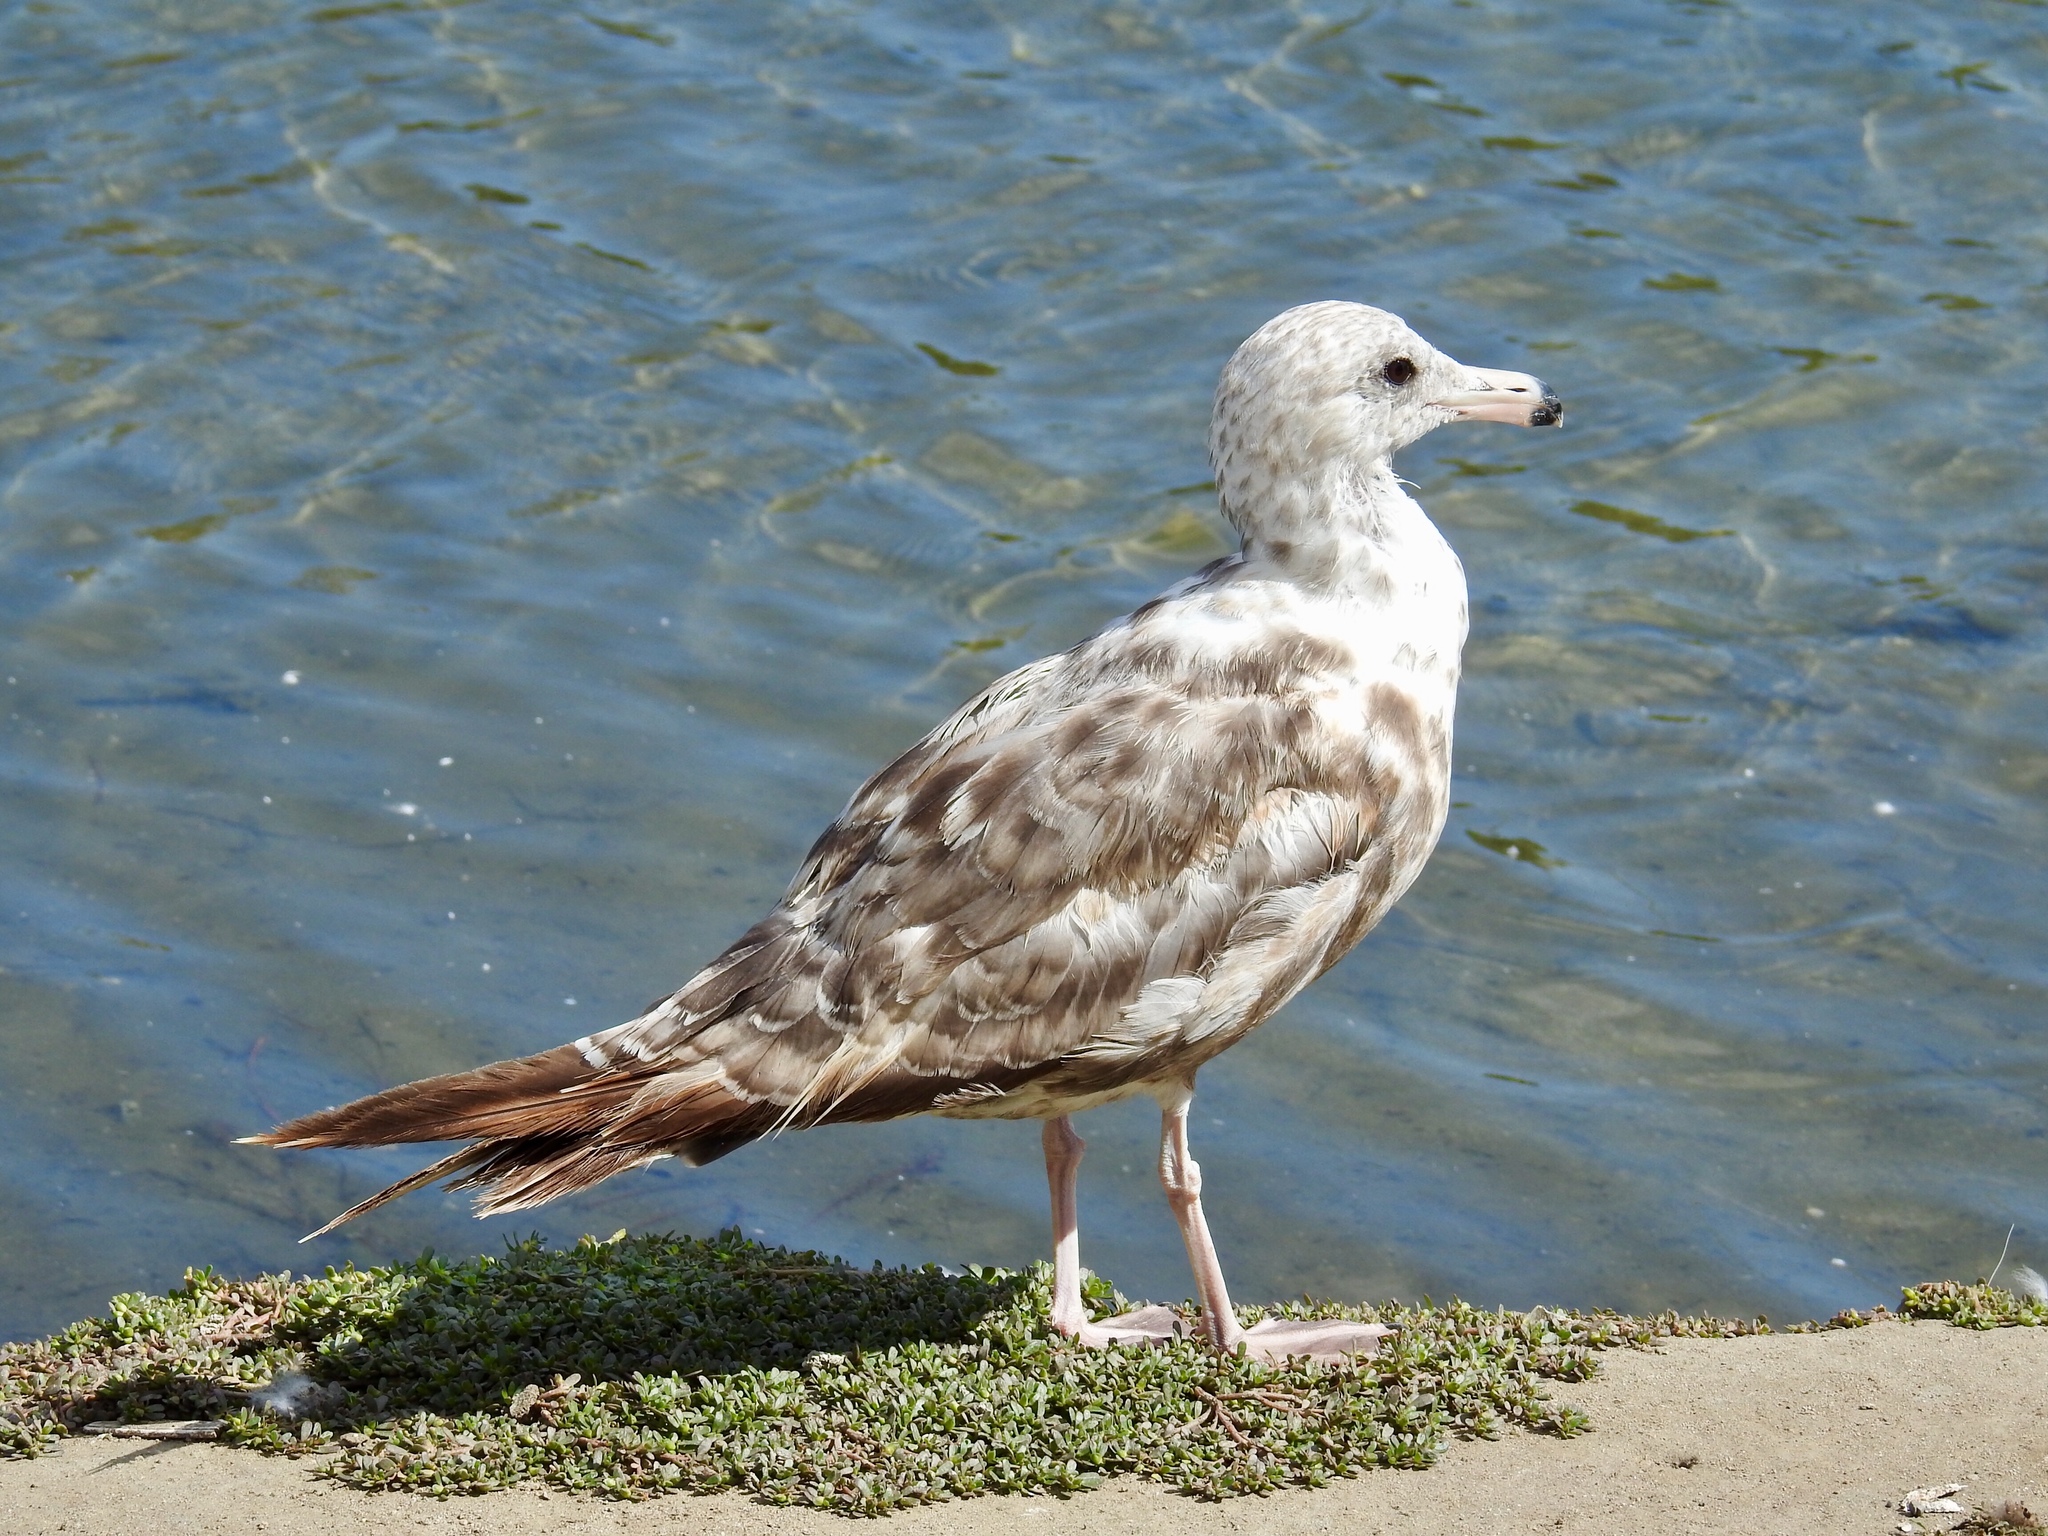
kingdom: Animalia
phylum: Chordata
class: Aves
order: Charadriiformes
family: Laridae
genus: Larus
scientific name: Larus californicus
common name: California gull
